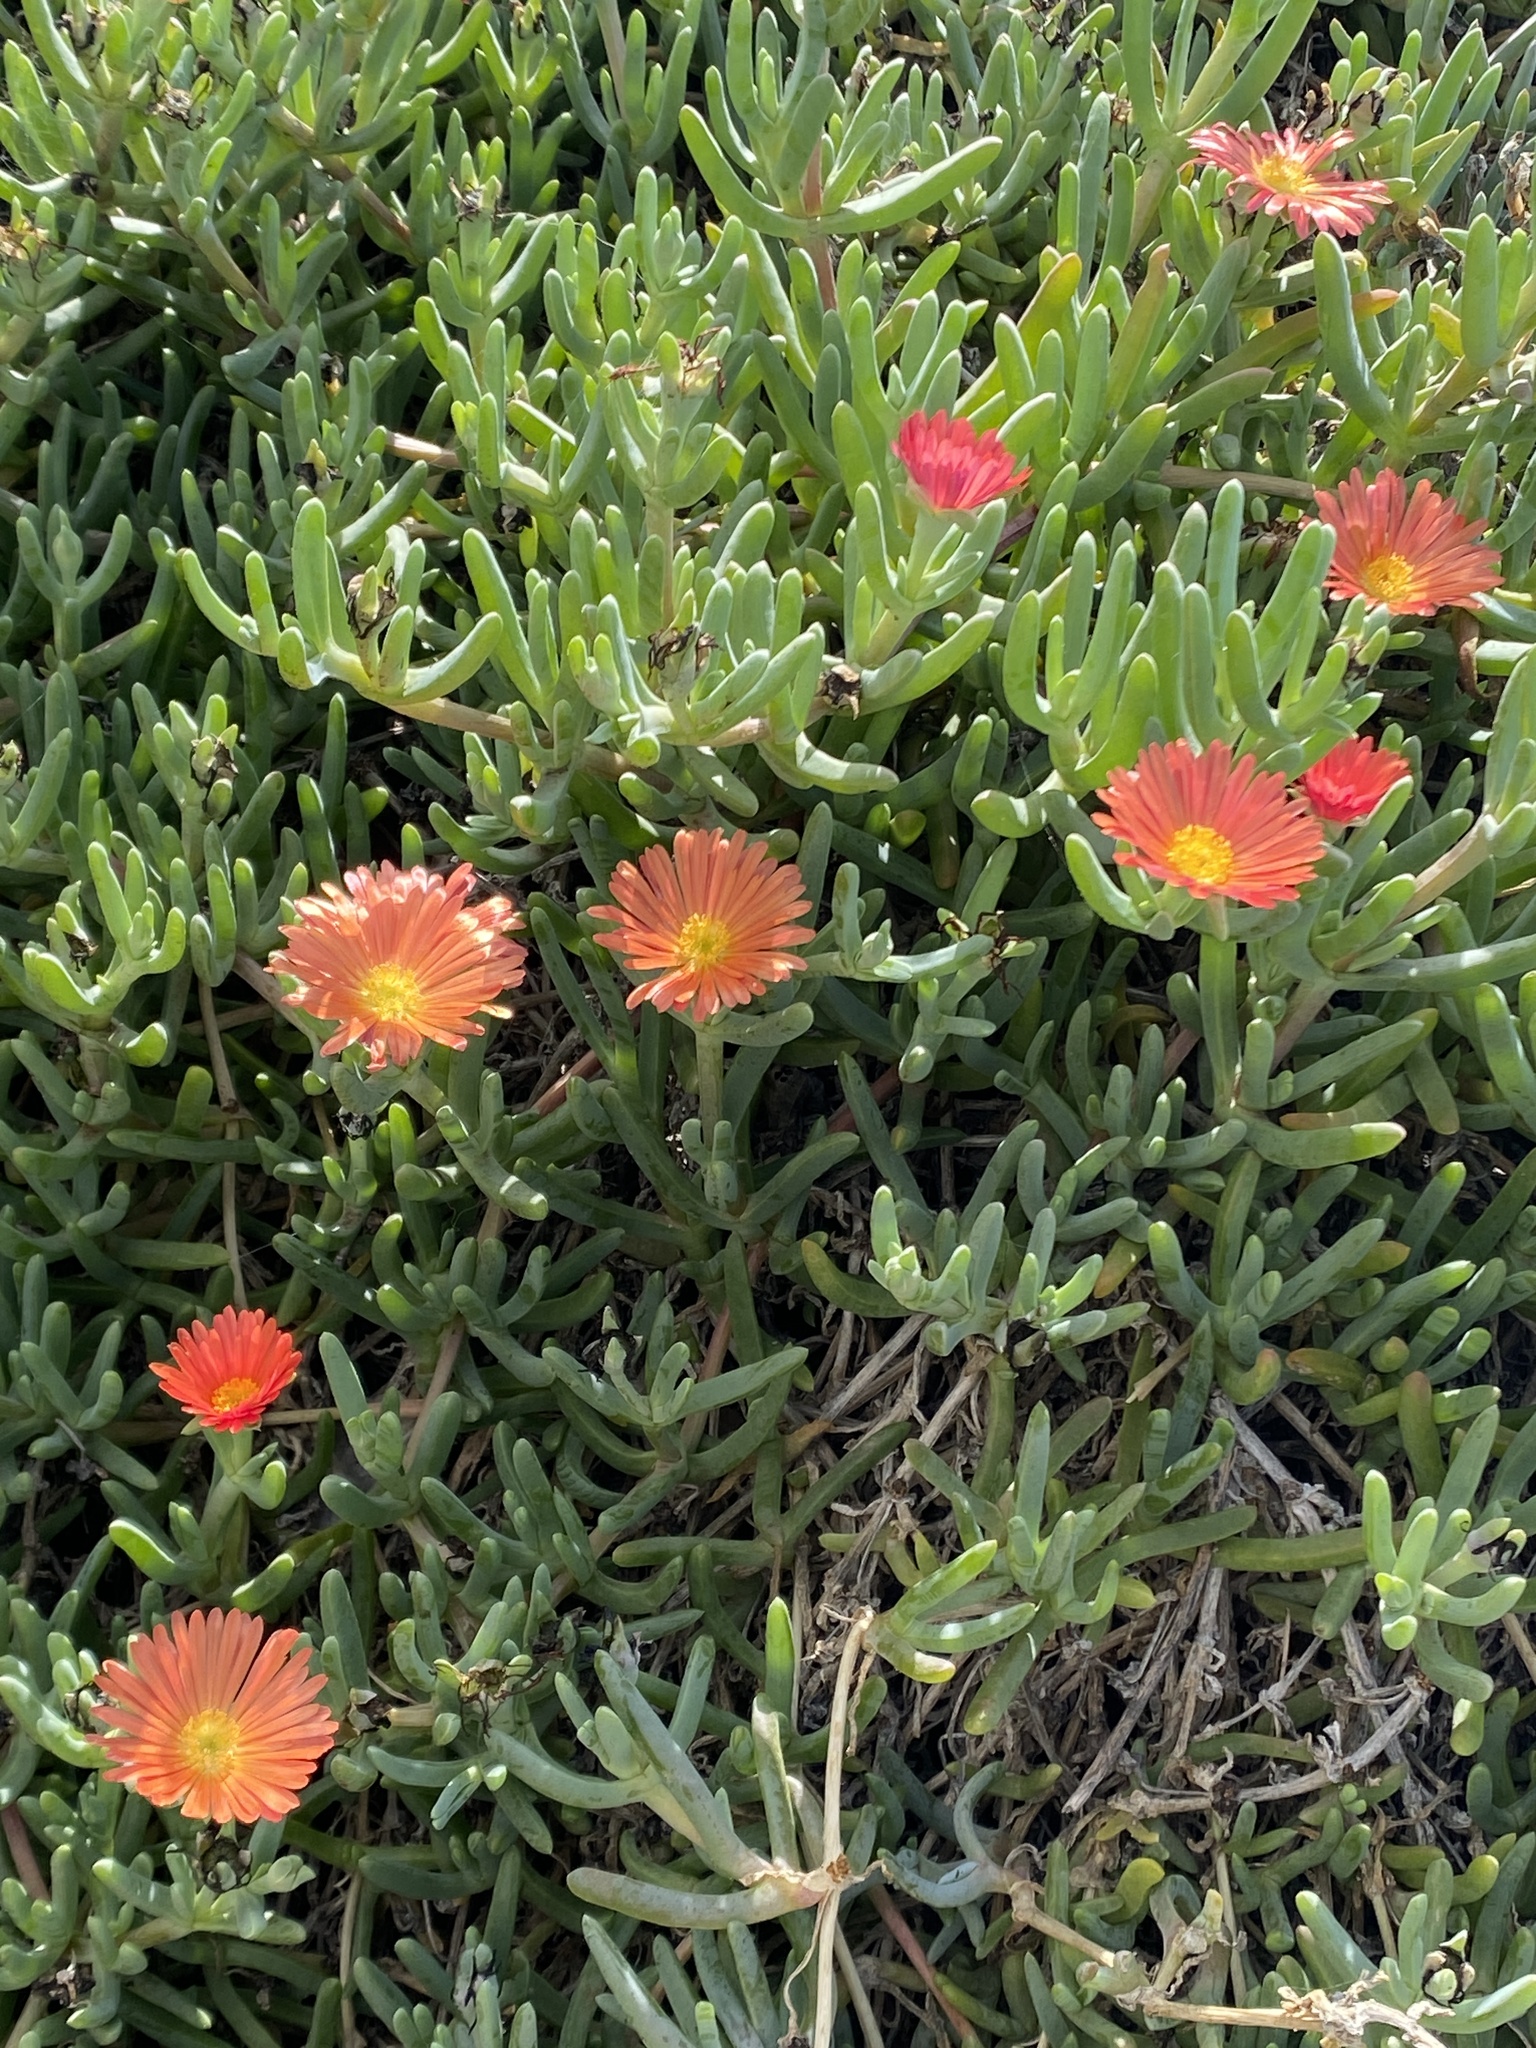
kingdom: Plantae
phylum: Tracheophyta
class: Magnoliopsida
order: Caryophyllales
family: Aizoaceae
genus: Malephora
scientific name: Malephora crocea
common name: Coppery mesemb
